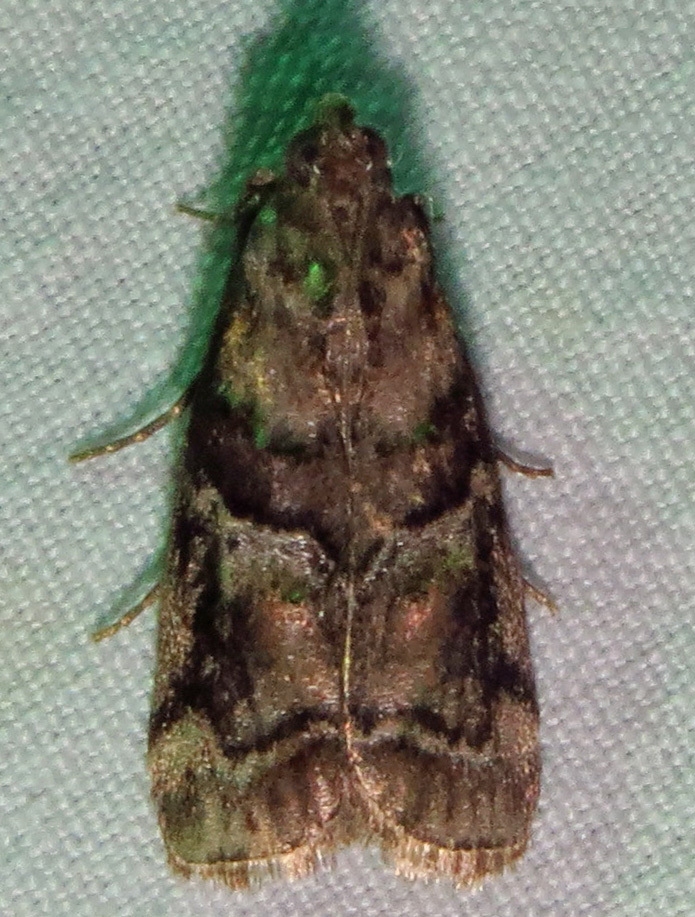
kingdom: Animalia
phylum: Arthropoda
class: Insecta
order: Lepidoptera
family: Pyralidae
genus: Dioryctria
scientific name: Dioryctria clarioralis
